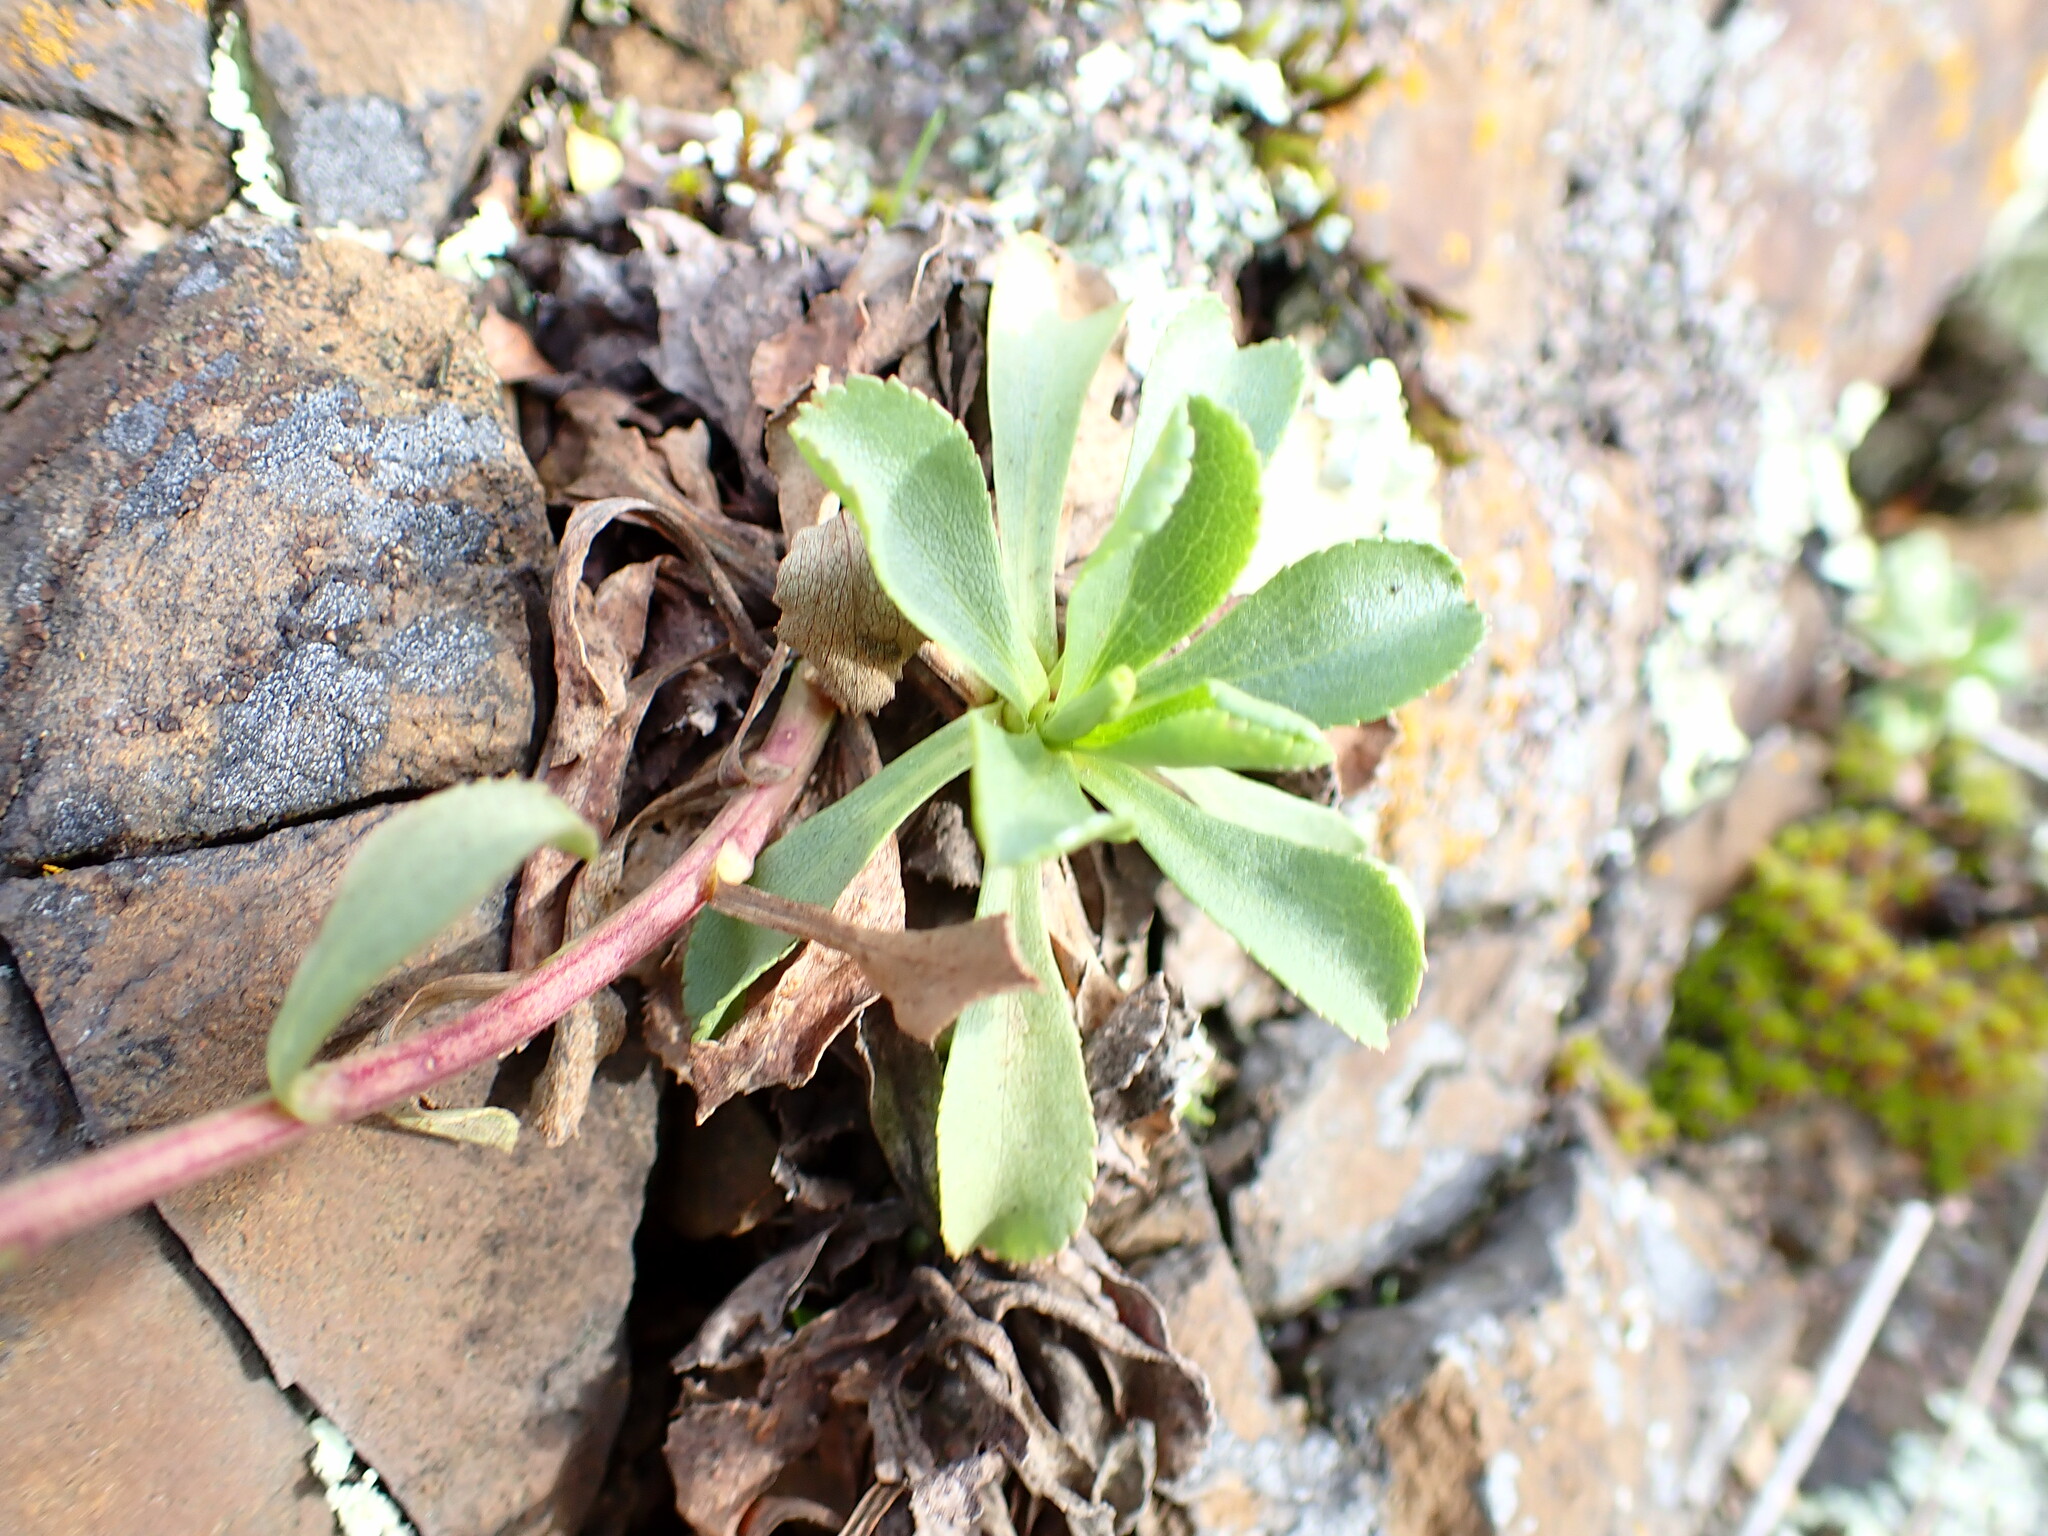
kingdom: Plantae
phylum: Tracheophyta
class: Magnoliopsida
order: Asterales
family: Asteraceae
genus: Solidago
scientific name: Solidago spathulata
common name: Coast goldenrod
